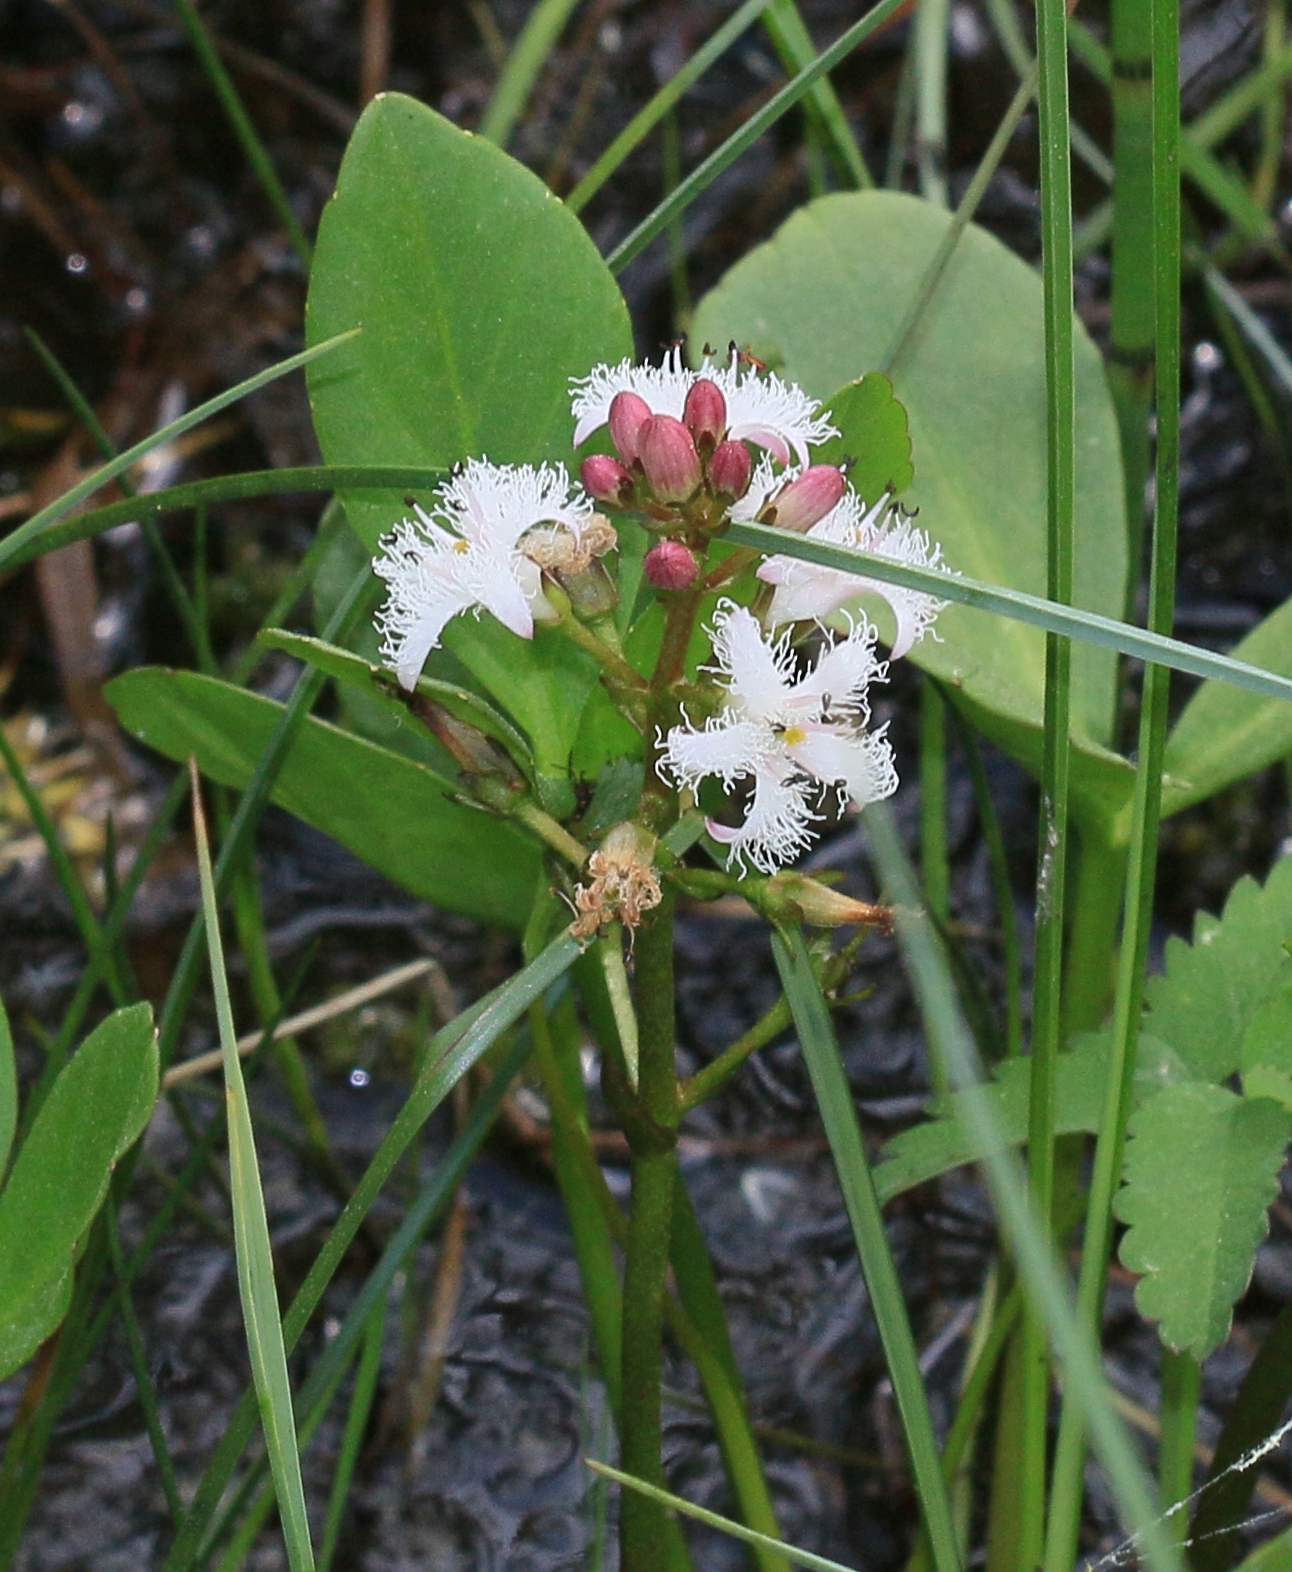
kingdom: Plantae
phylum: Tracheophyta
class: Magnoliopsida
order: Asterales
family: Menyanthaceae
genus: Menyanthes
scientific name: Menyanthes trifoliata
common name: Bogbean
